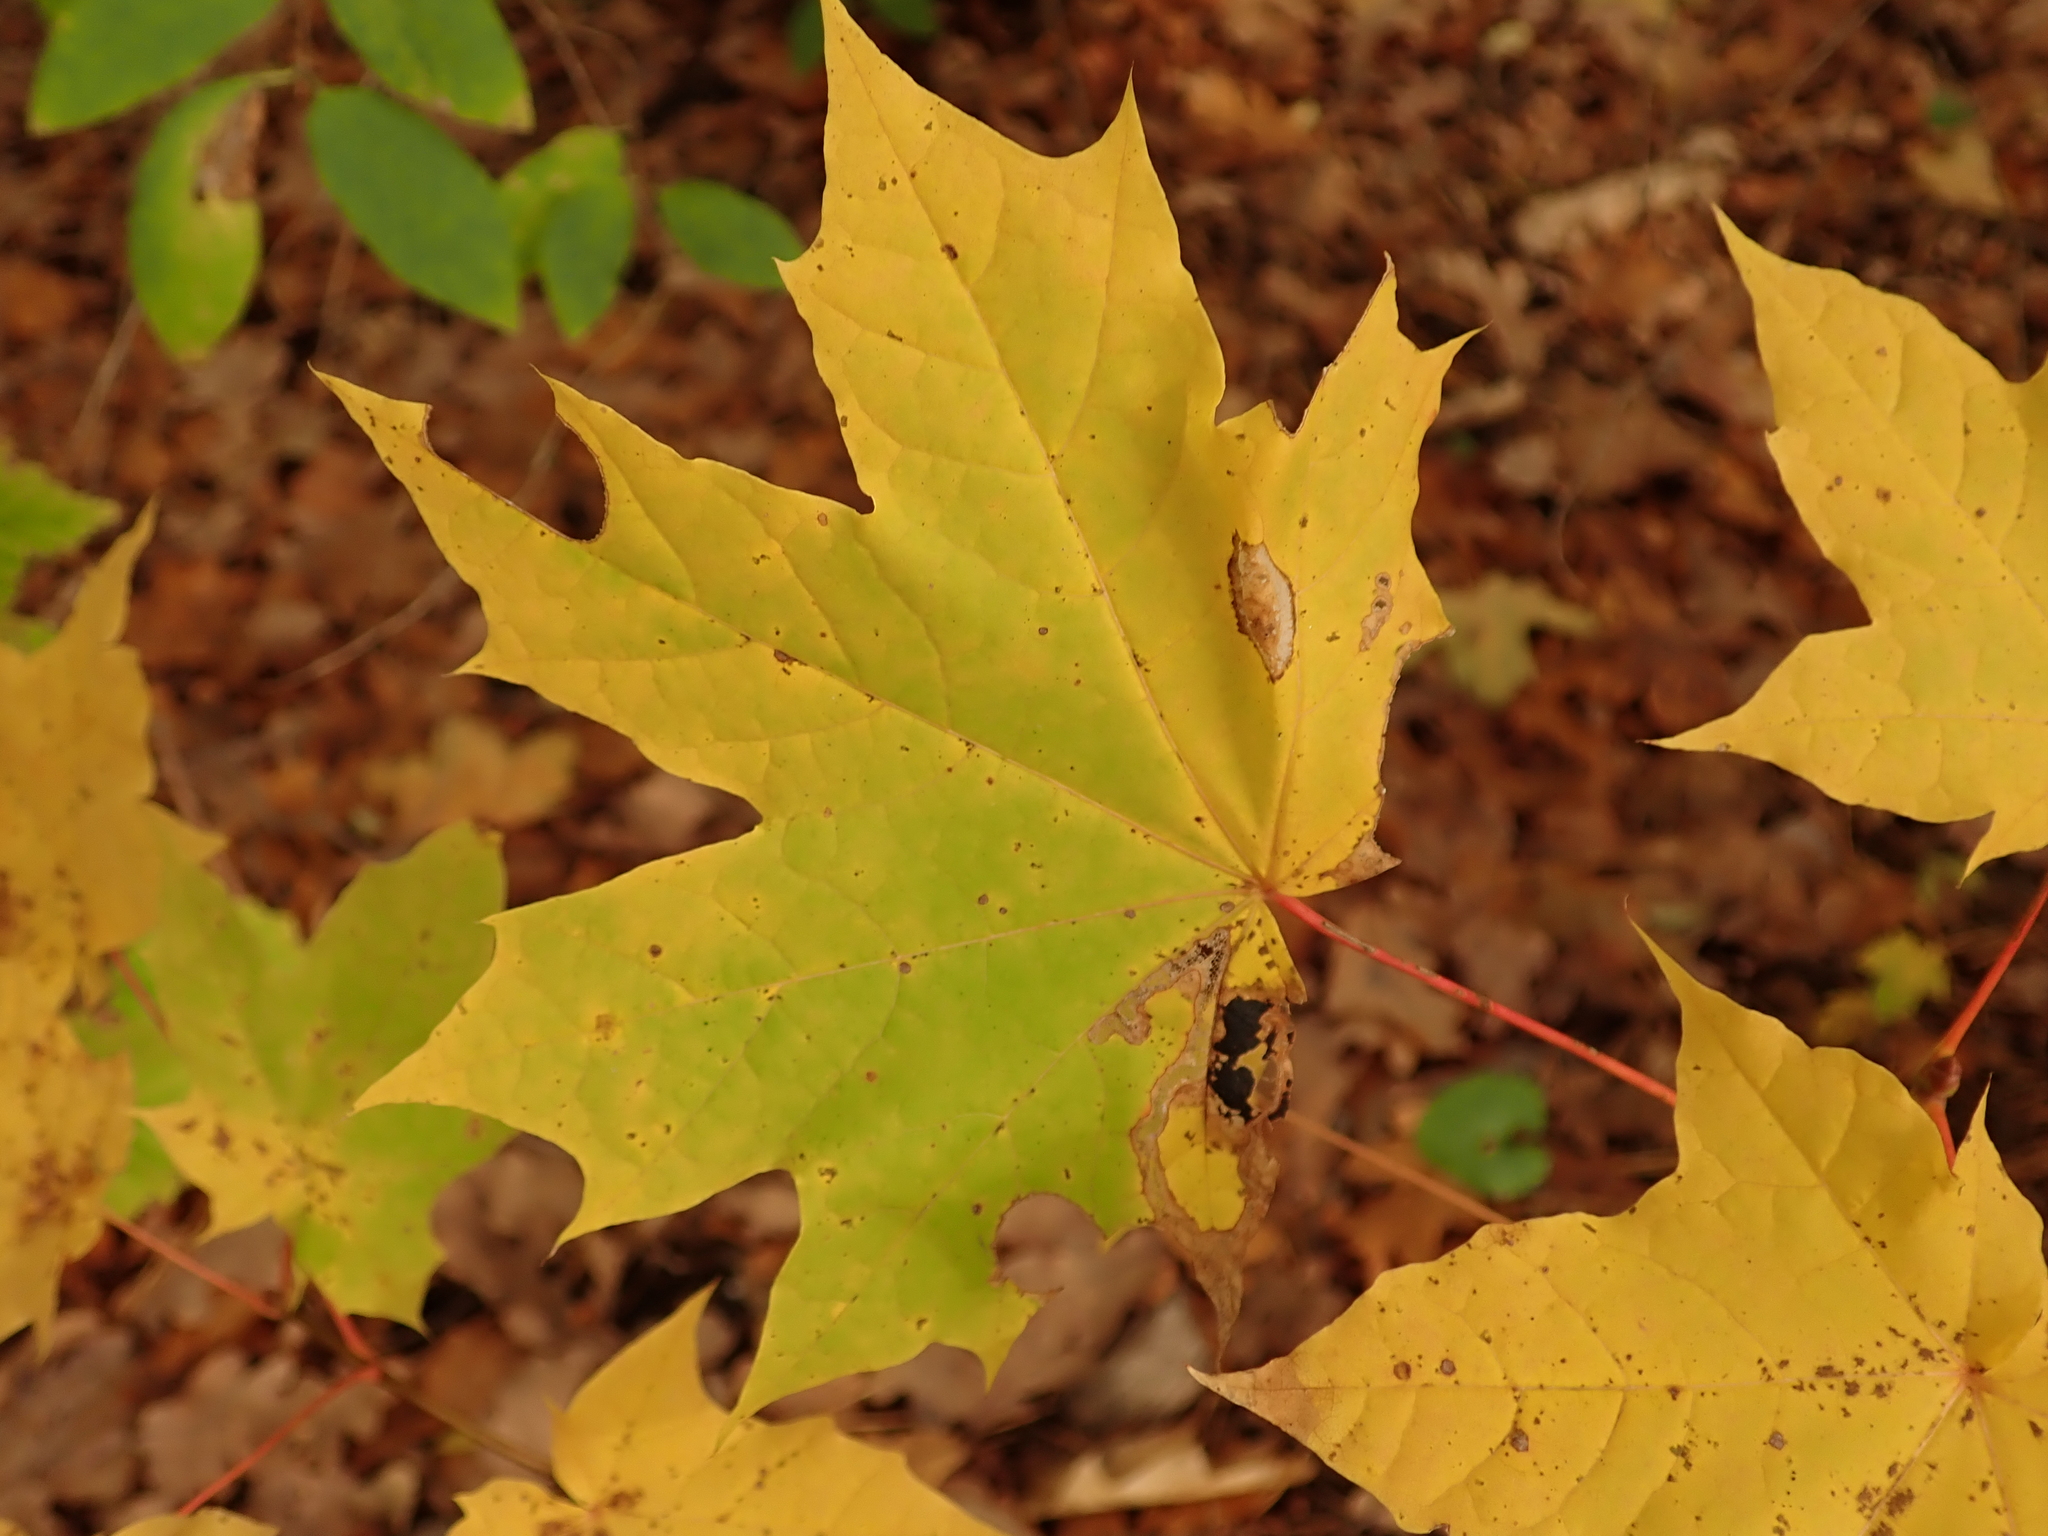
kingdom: Plantae
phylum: Tracheophyta
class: Magnoliopsida
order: Sapindales
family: Sapindaceae
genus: Acer
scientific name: Acer platanoides
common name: Norway maple
